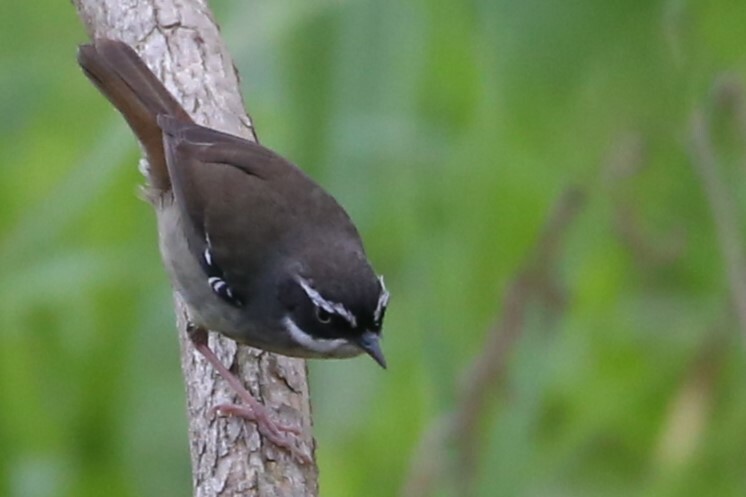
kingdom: Animalia
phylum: Chordata
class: Aves
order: Passeriformes
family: Acanthizidae
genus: Sericornis
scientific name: Sericornis frontalis
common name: White-browed scrubwren
